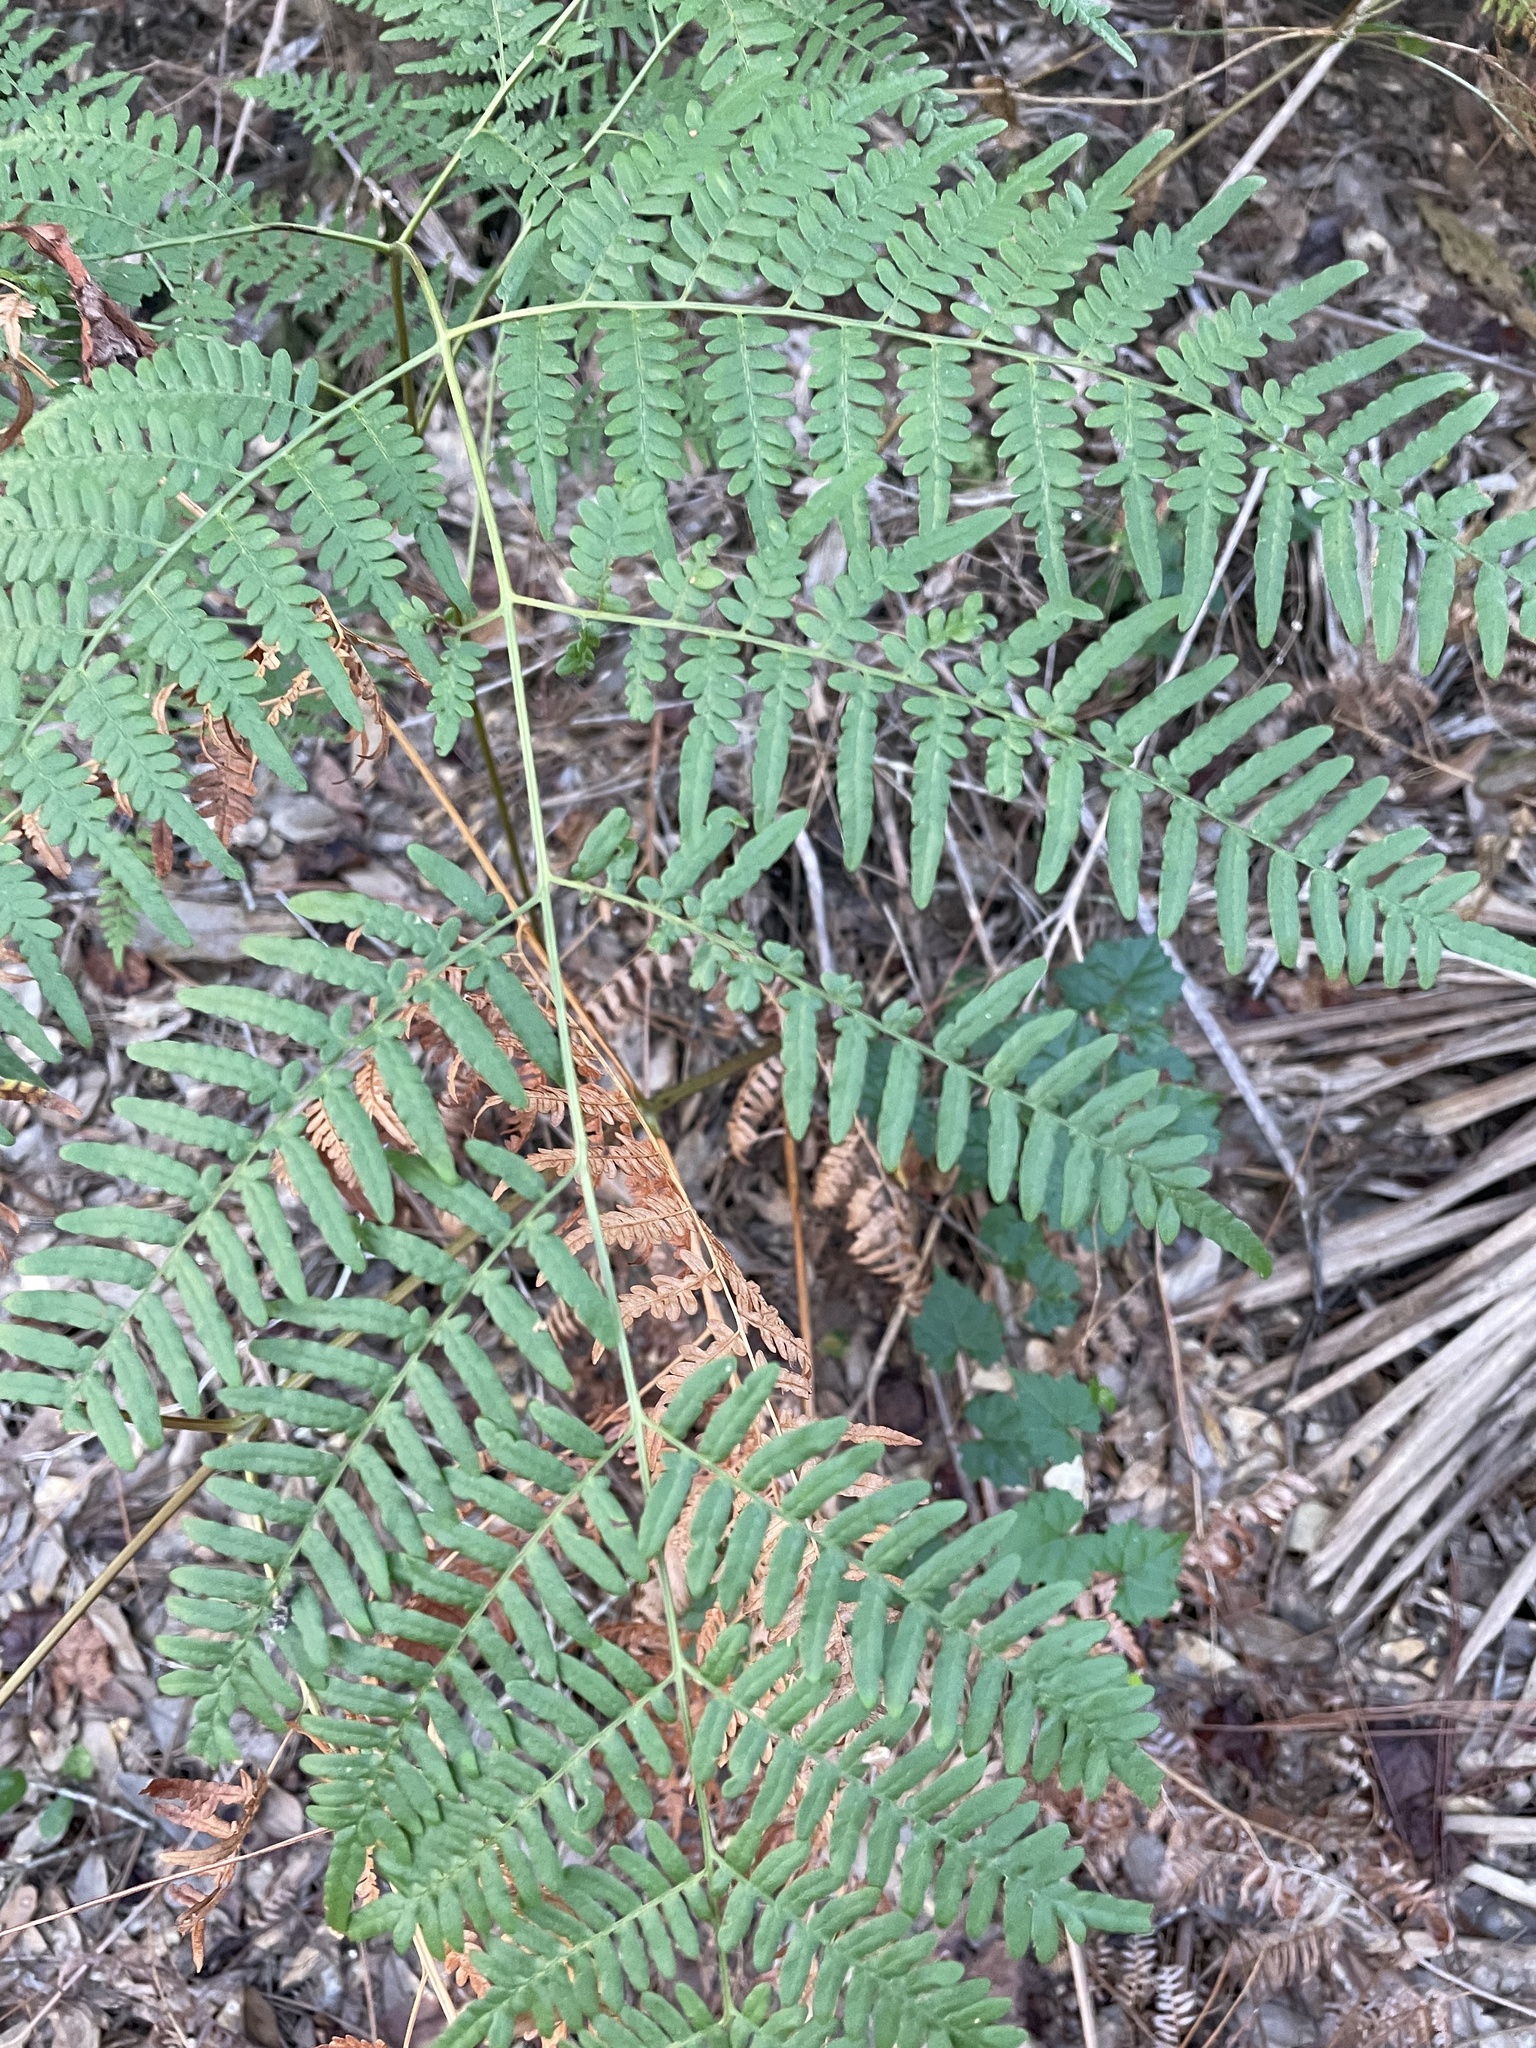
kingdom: Plantae
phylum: Tracheophyta
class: Polypodiopsida
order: Polypodiales
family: Dennstaedtiaceae
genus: Pteridium
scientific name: Pteridium
